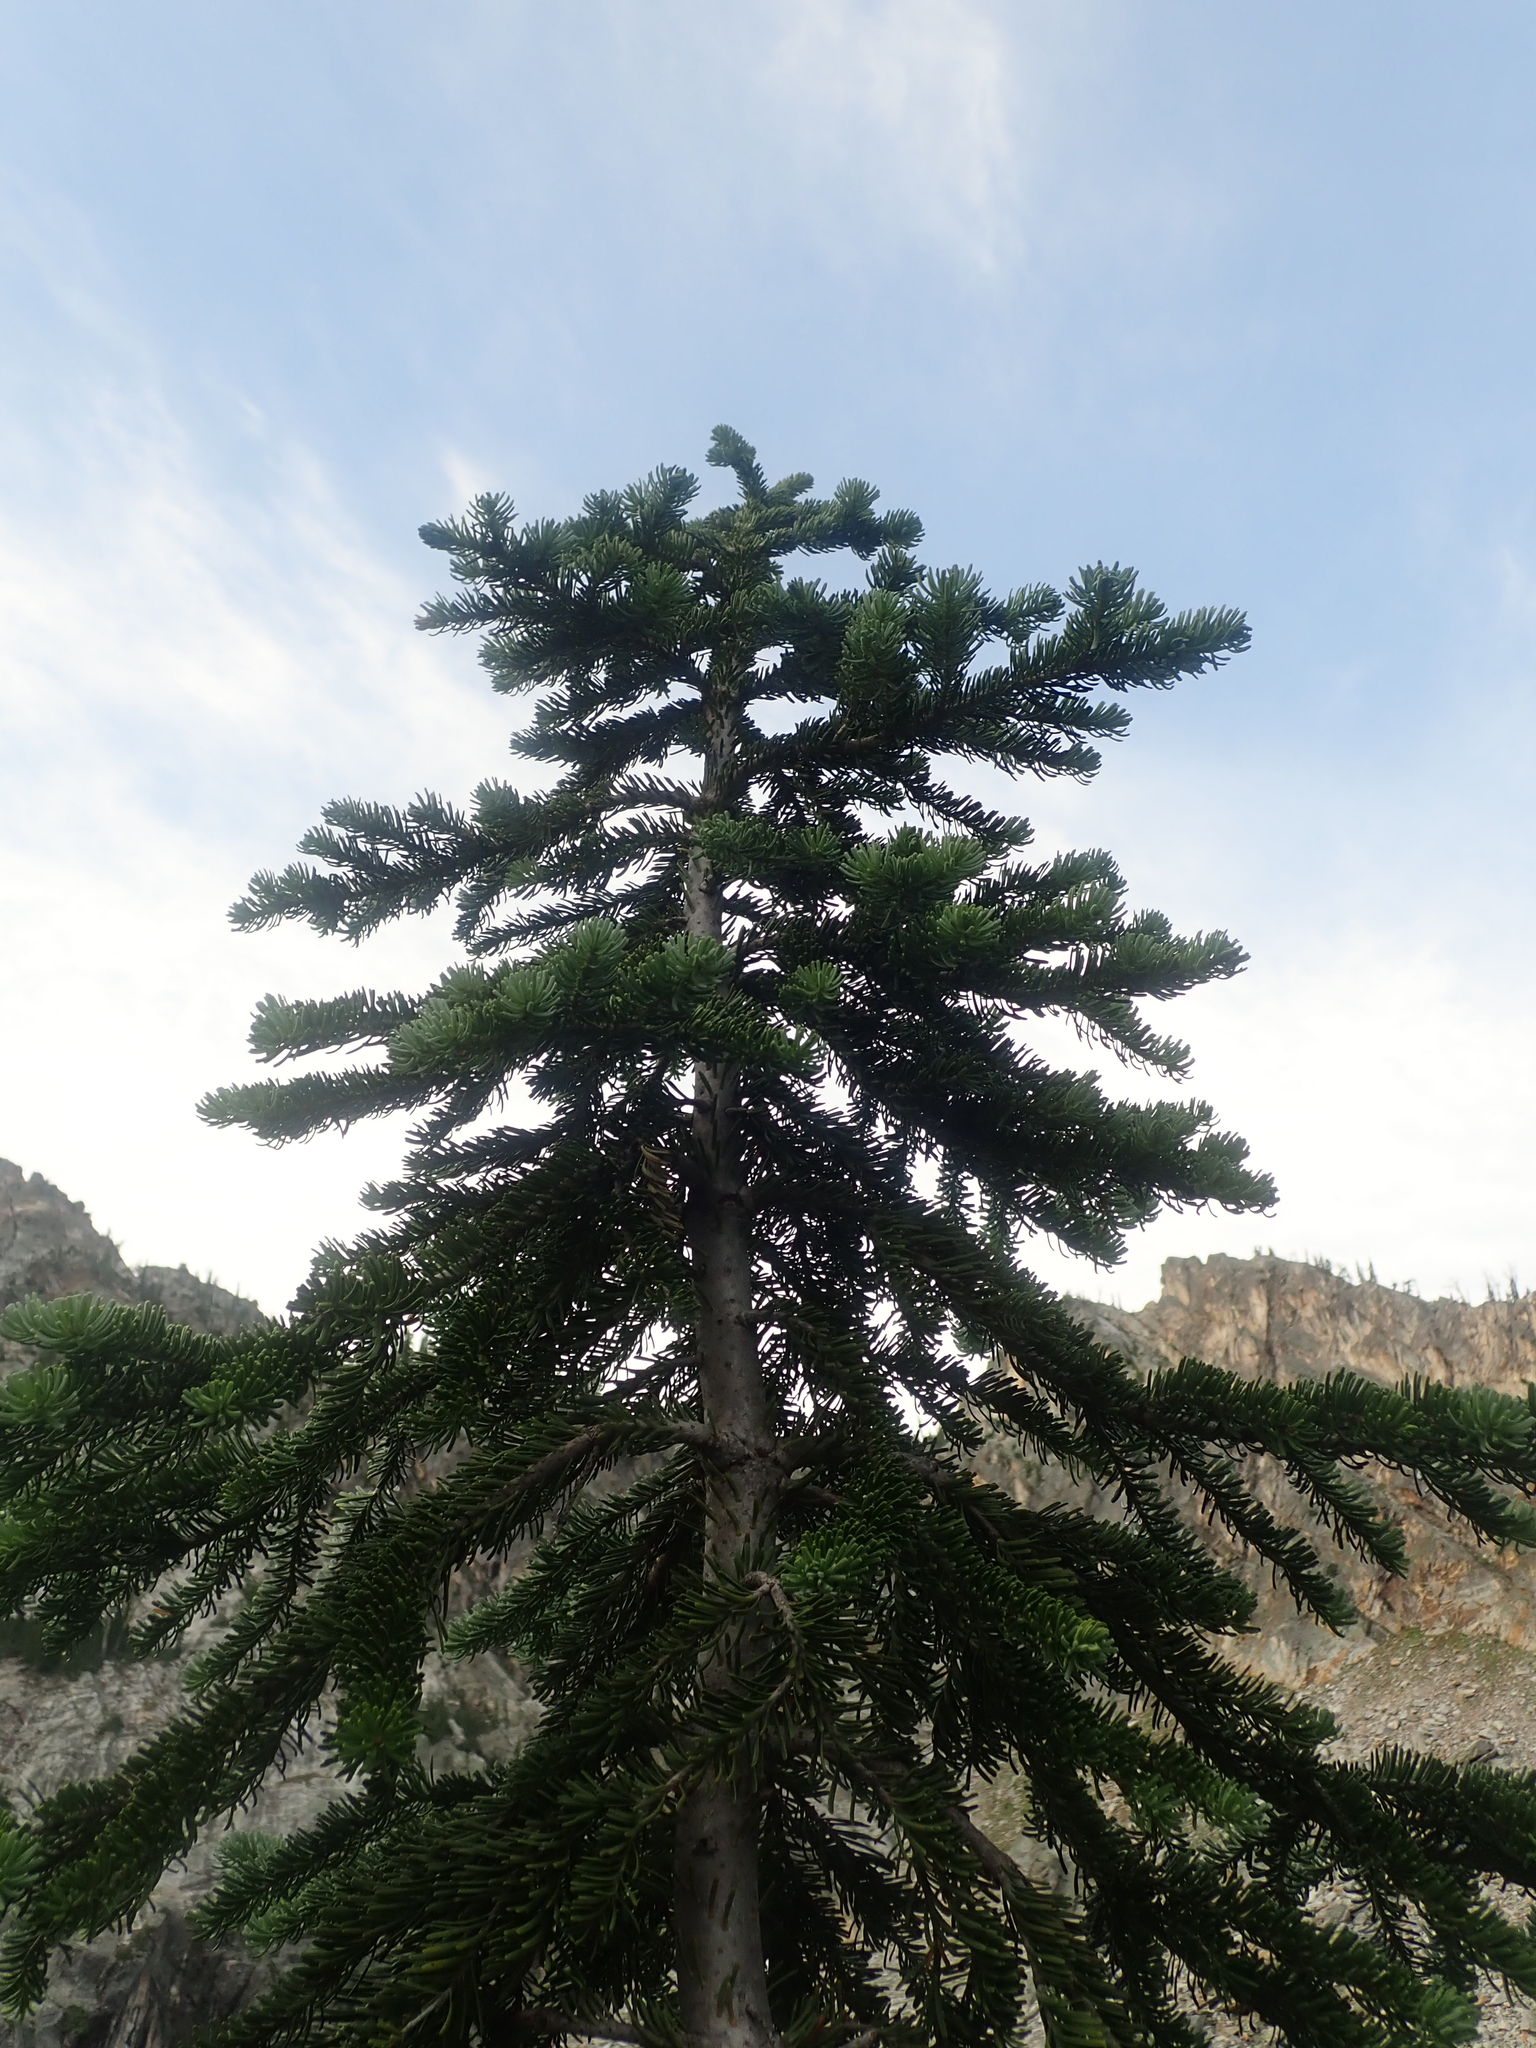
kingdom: Plantae
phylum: Tracheophyta
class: Pinopsida
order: Pinales
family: Pinaceae
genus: Abies
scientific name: Abies lasiocarpa
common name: Subalpine fir
